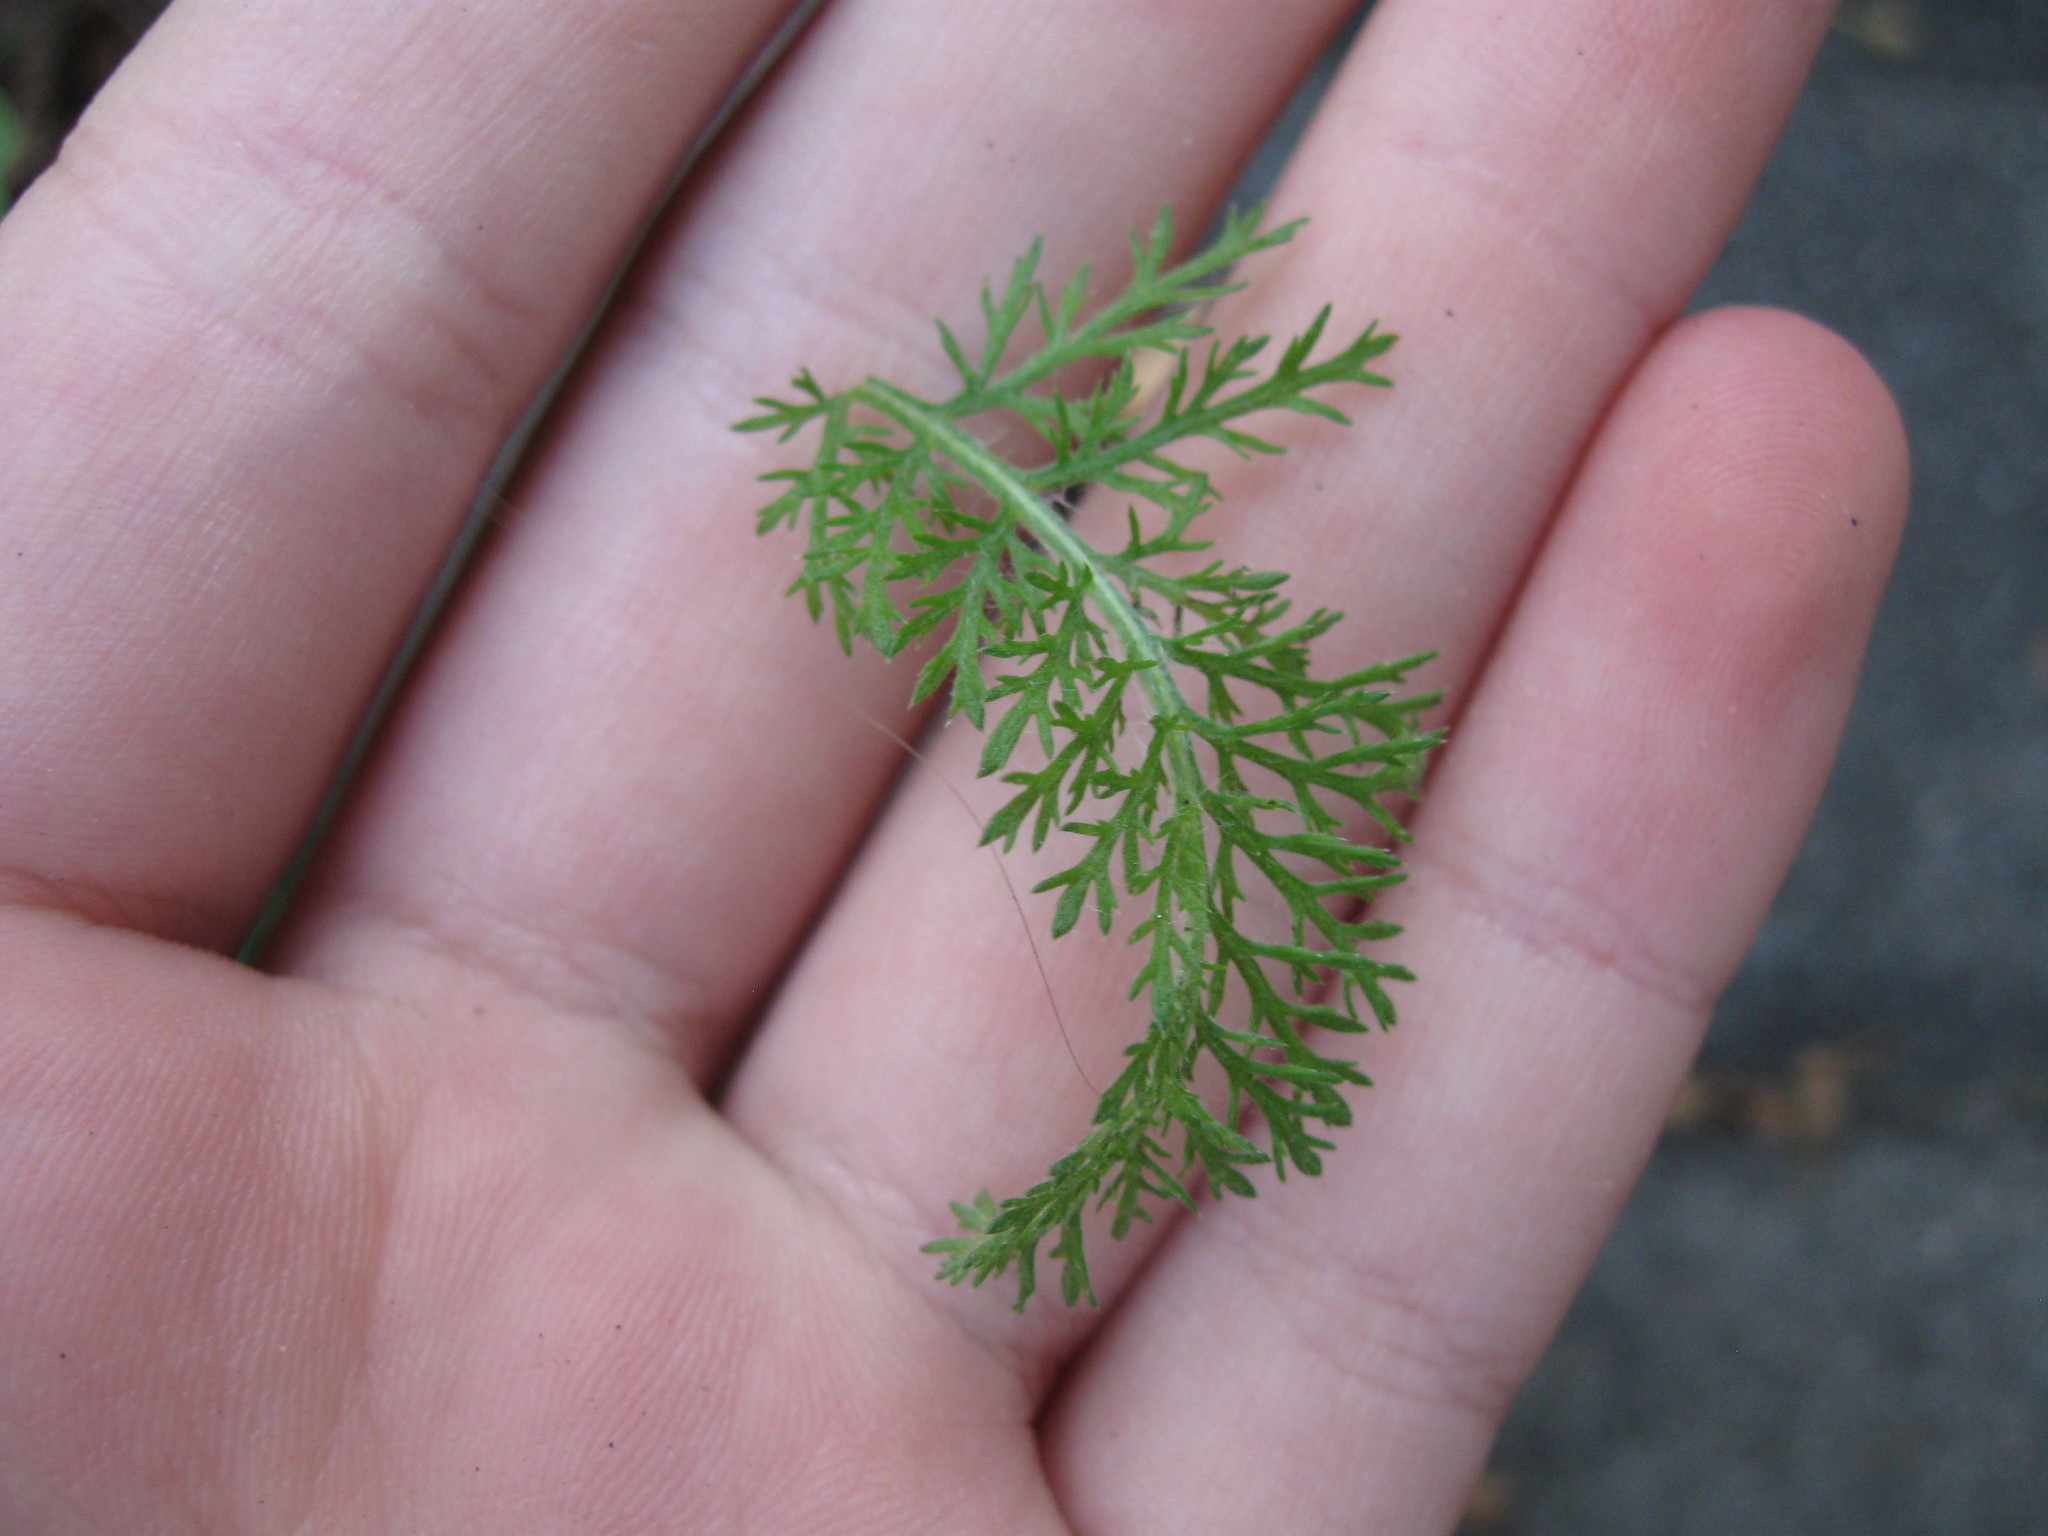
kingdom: Plantae
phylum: Tracheophyta
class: Magnoliopsida
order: Asterales
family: Asteraceae
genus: Achillea
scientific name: Achillea millefolium
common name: Yarrow
